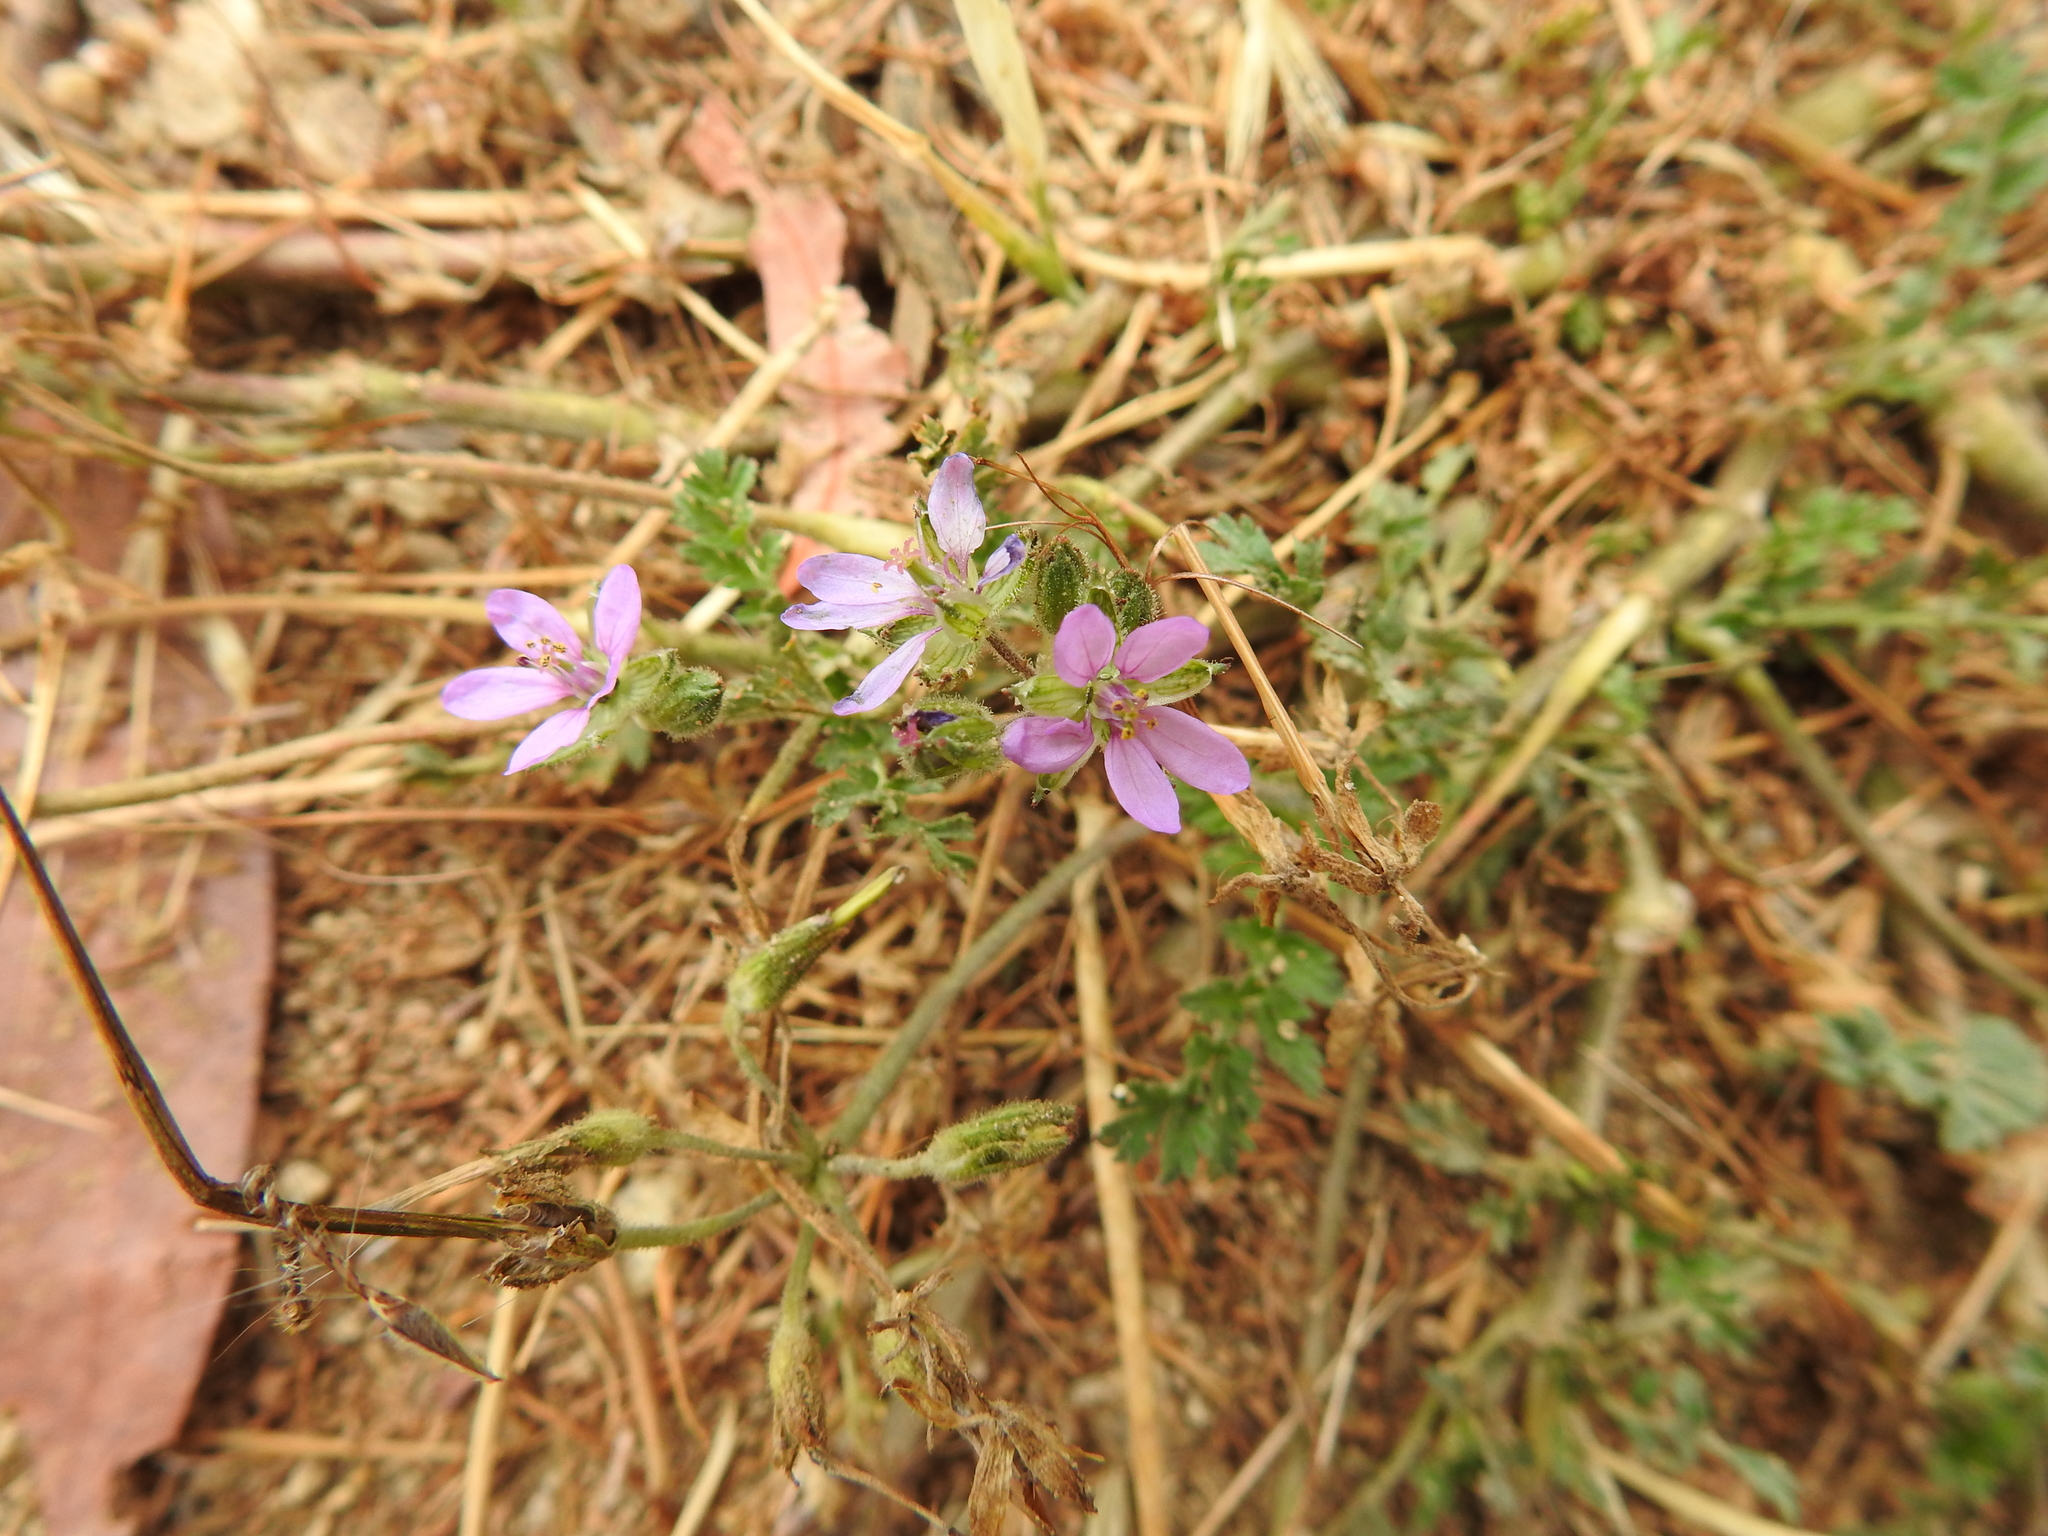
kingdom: Plantae
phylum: Tracheophyta
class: Magnoliopsida
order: Geraniales
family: Geraniaceae
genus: Erodium
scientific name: Erodium cicutarium
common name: Common stork's-bill
